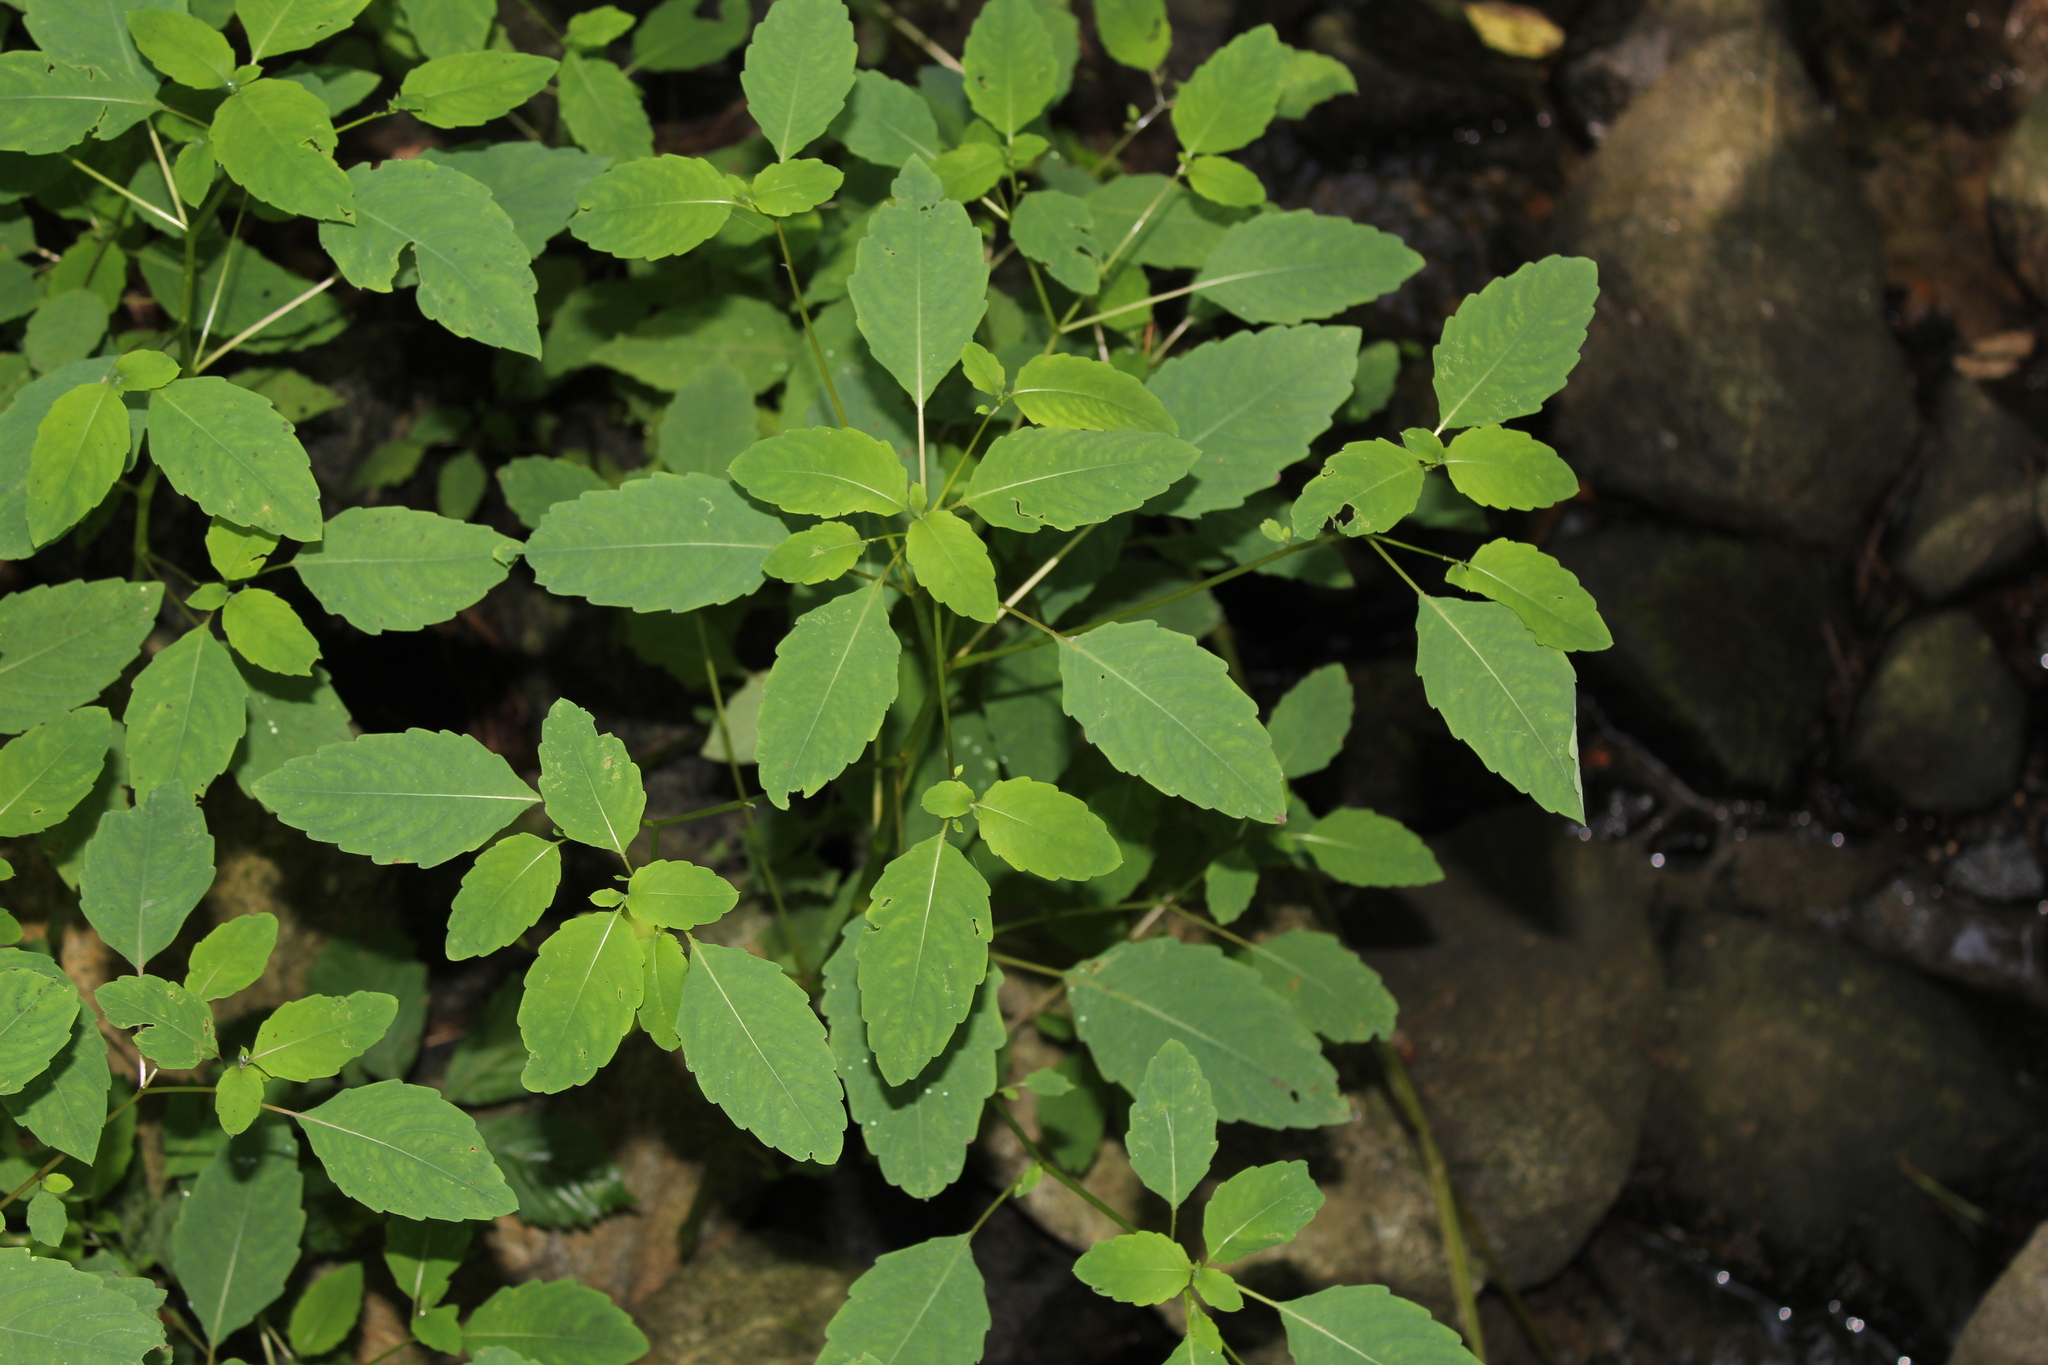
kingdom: Plantae
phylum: Tracheophyta
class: Magnoliopsida
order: Ericales
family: Balsaminaceae
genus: Impatiens
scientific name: Impatiens
